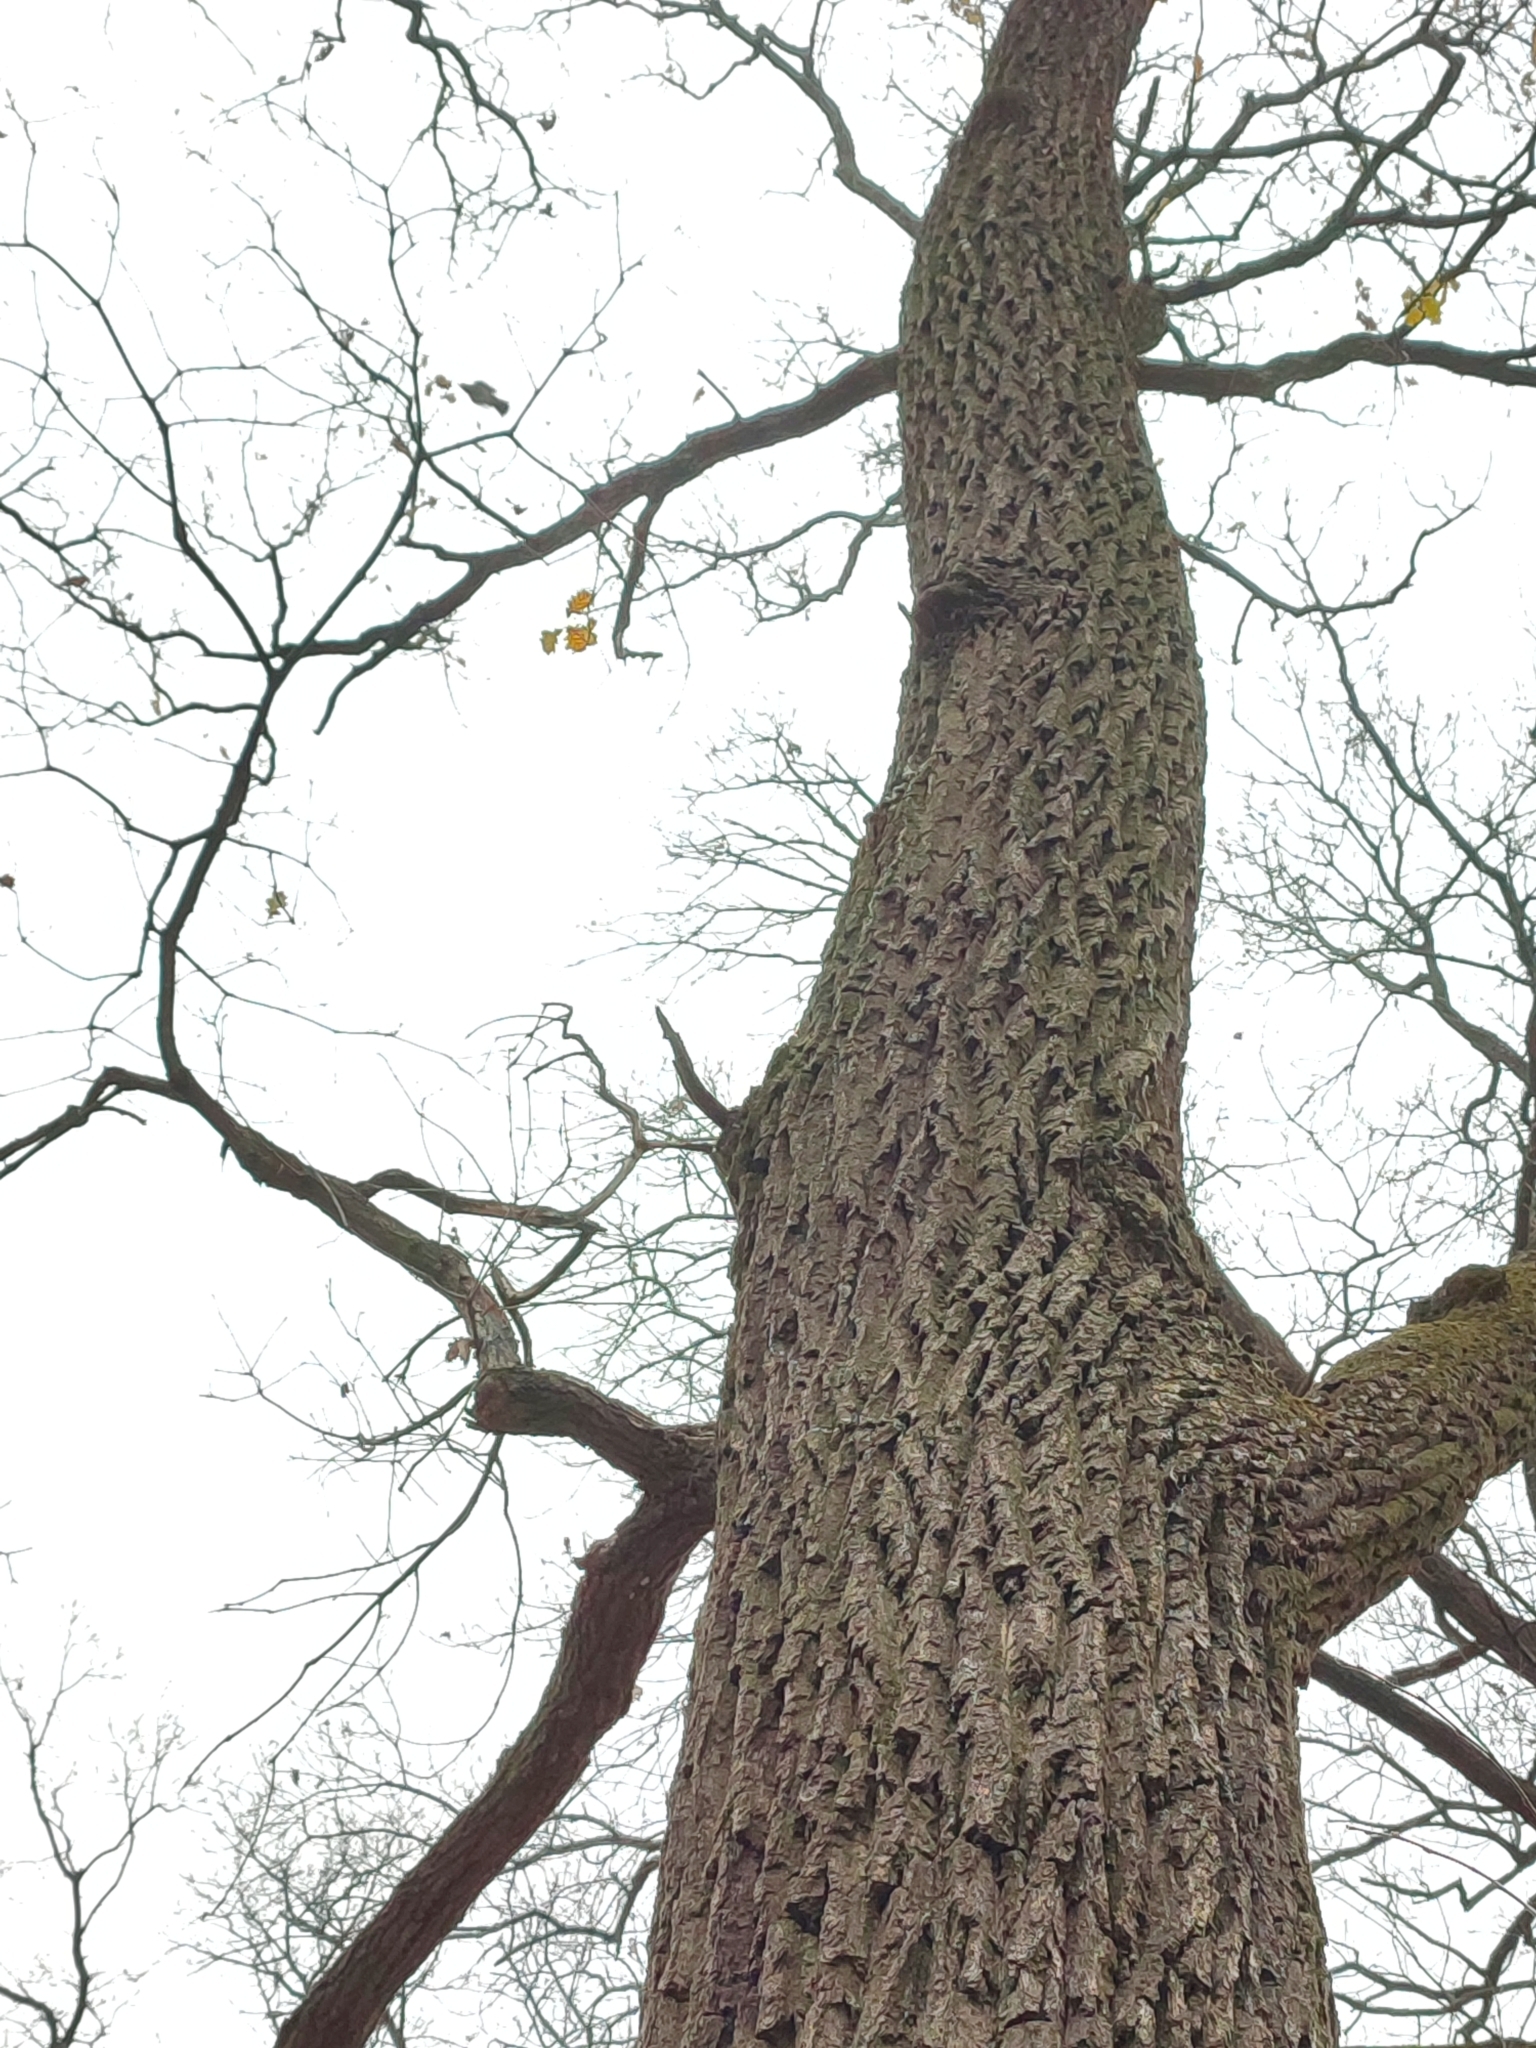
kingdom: Plantae
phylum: Tracheophyta
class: Magnoliopsida
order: Fagales
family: Fagaceae
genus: Quercus
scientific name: Quercus robur
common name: Pedunculate oak
